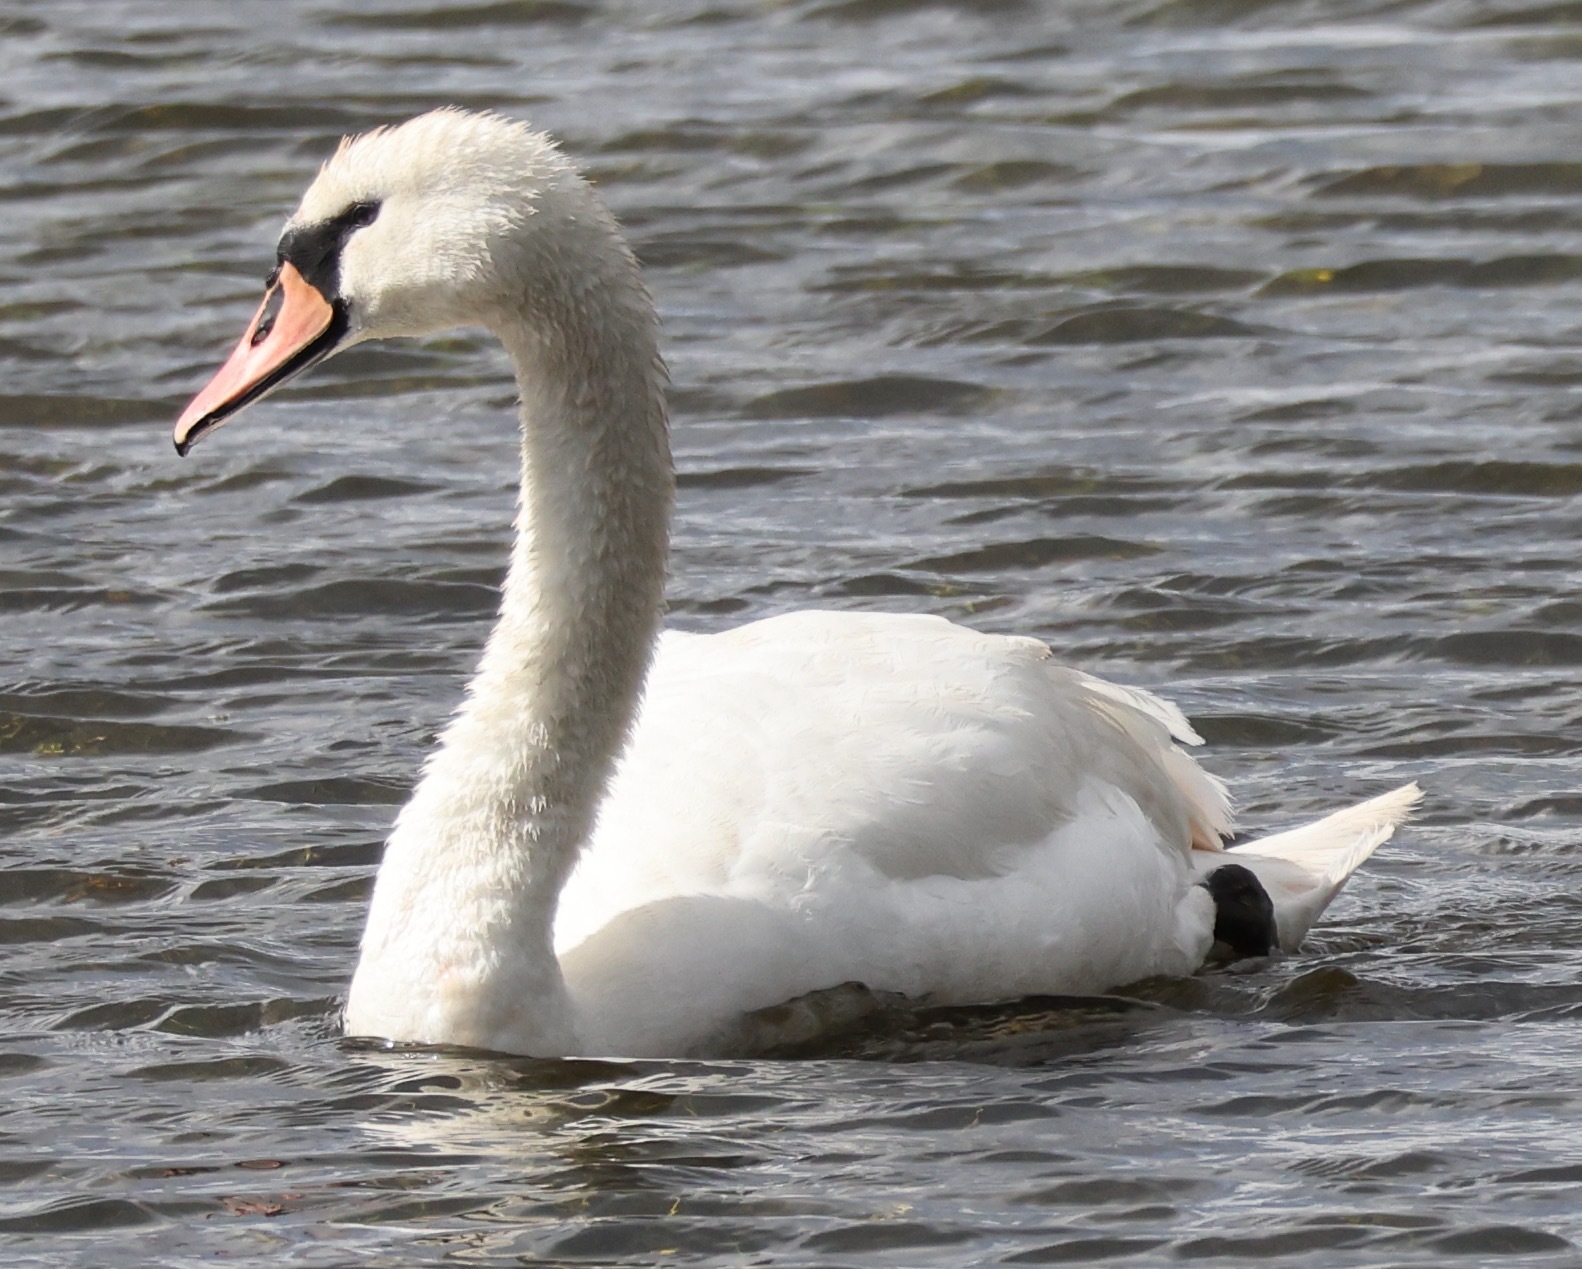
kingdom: Animalia
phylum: Chordata
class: Aves
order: Anseriformes
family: Anatidae
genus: Cygnus
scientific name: Cygnus olor
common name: Mute swan
